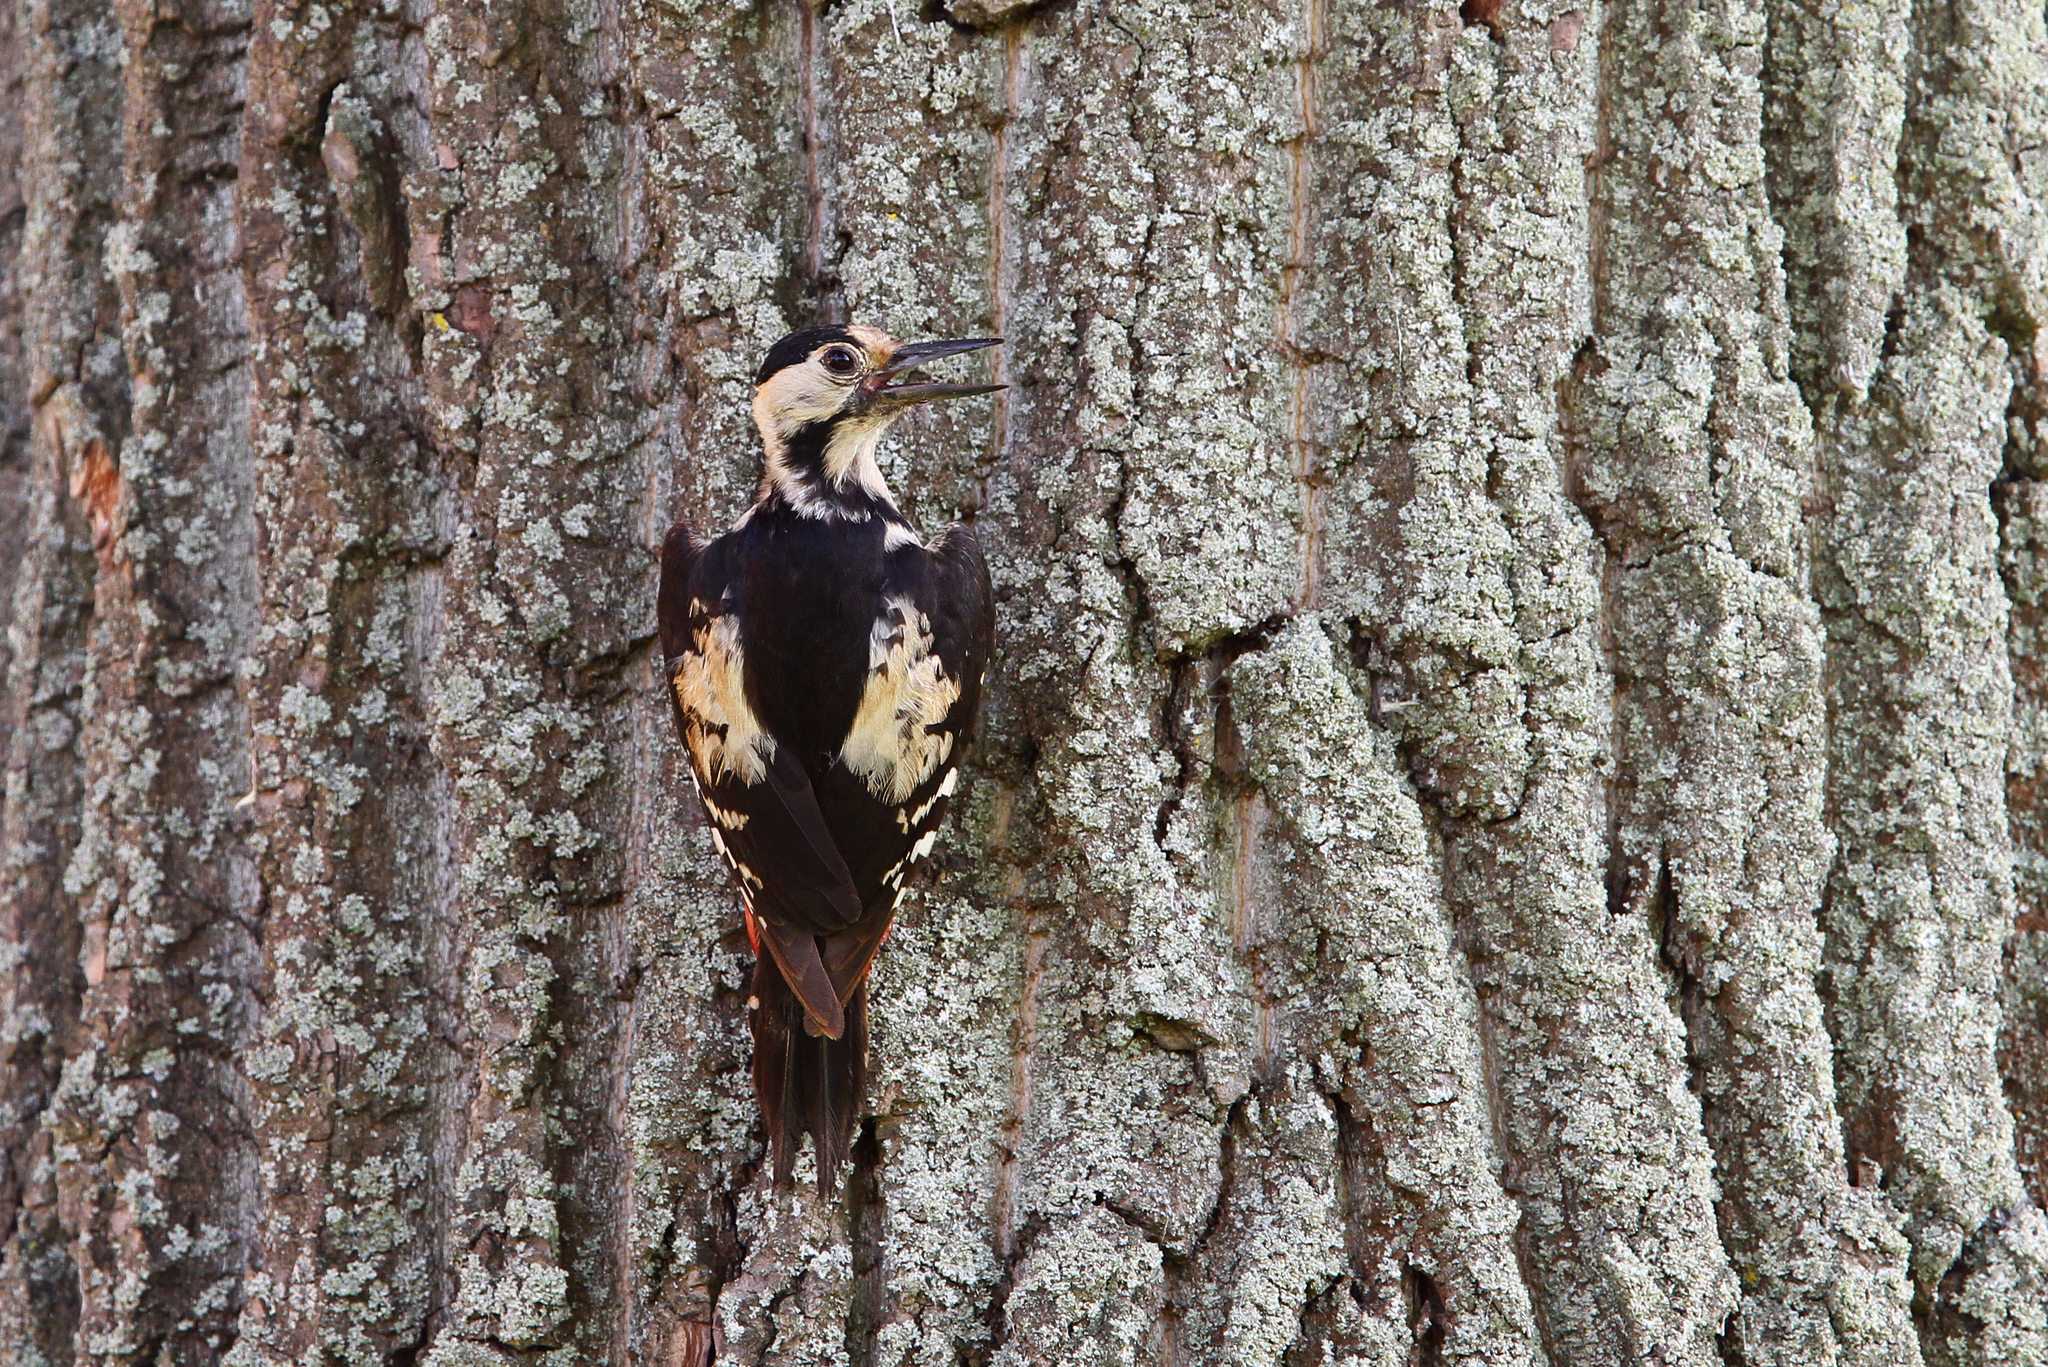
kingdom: Animalia
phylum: Chordata
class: Aves
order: Piciformes
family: Picidae
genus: Dendrocopos
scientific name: Dendrocopos syriacus
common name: Syrian woodpecker
